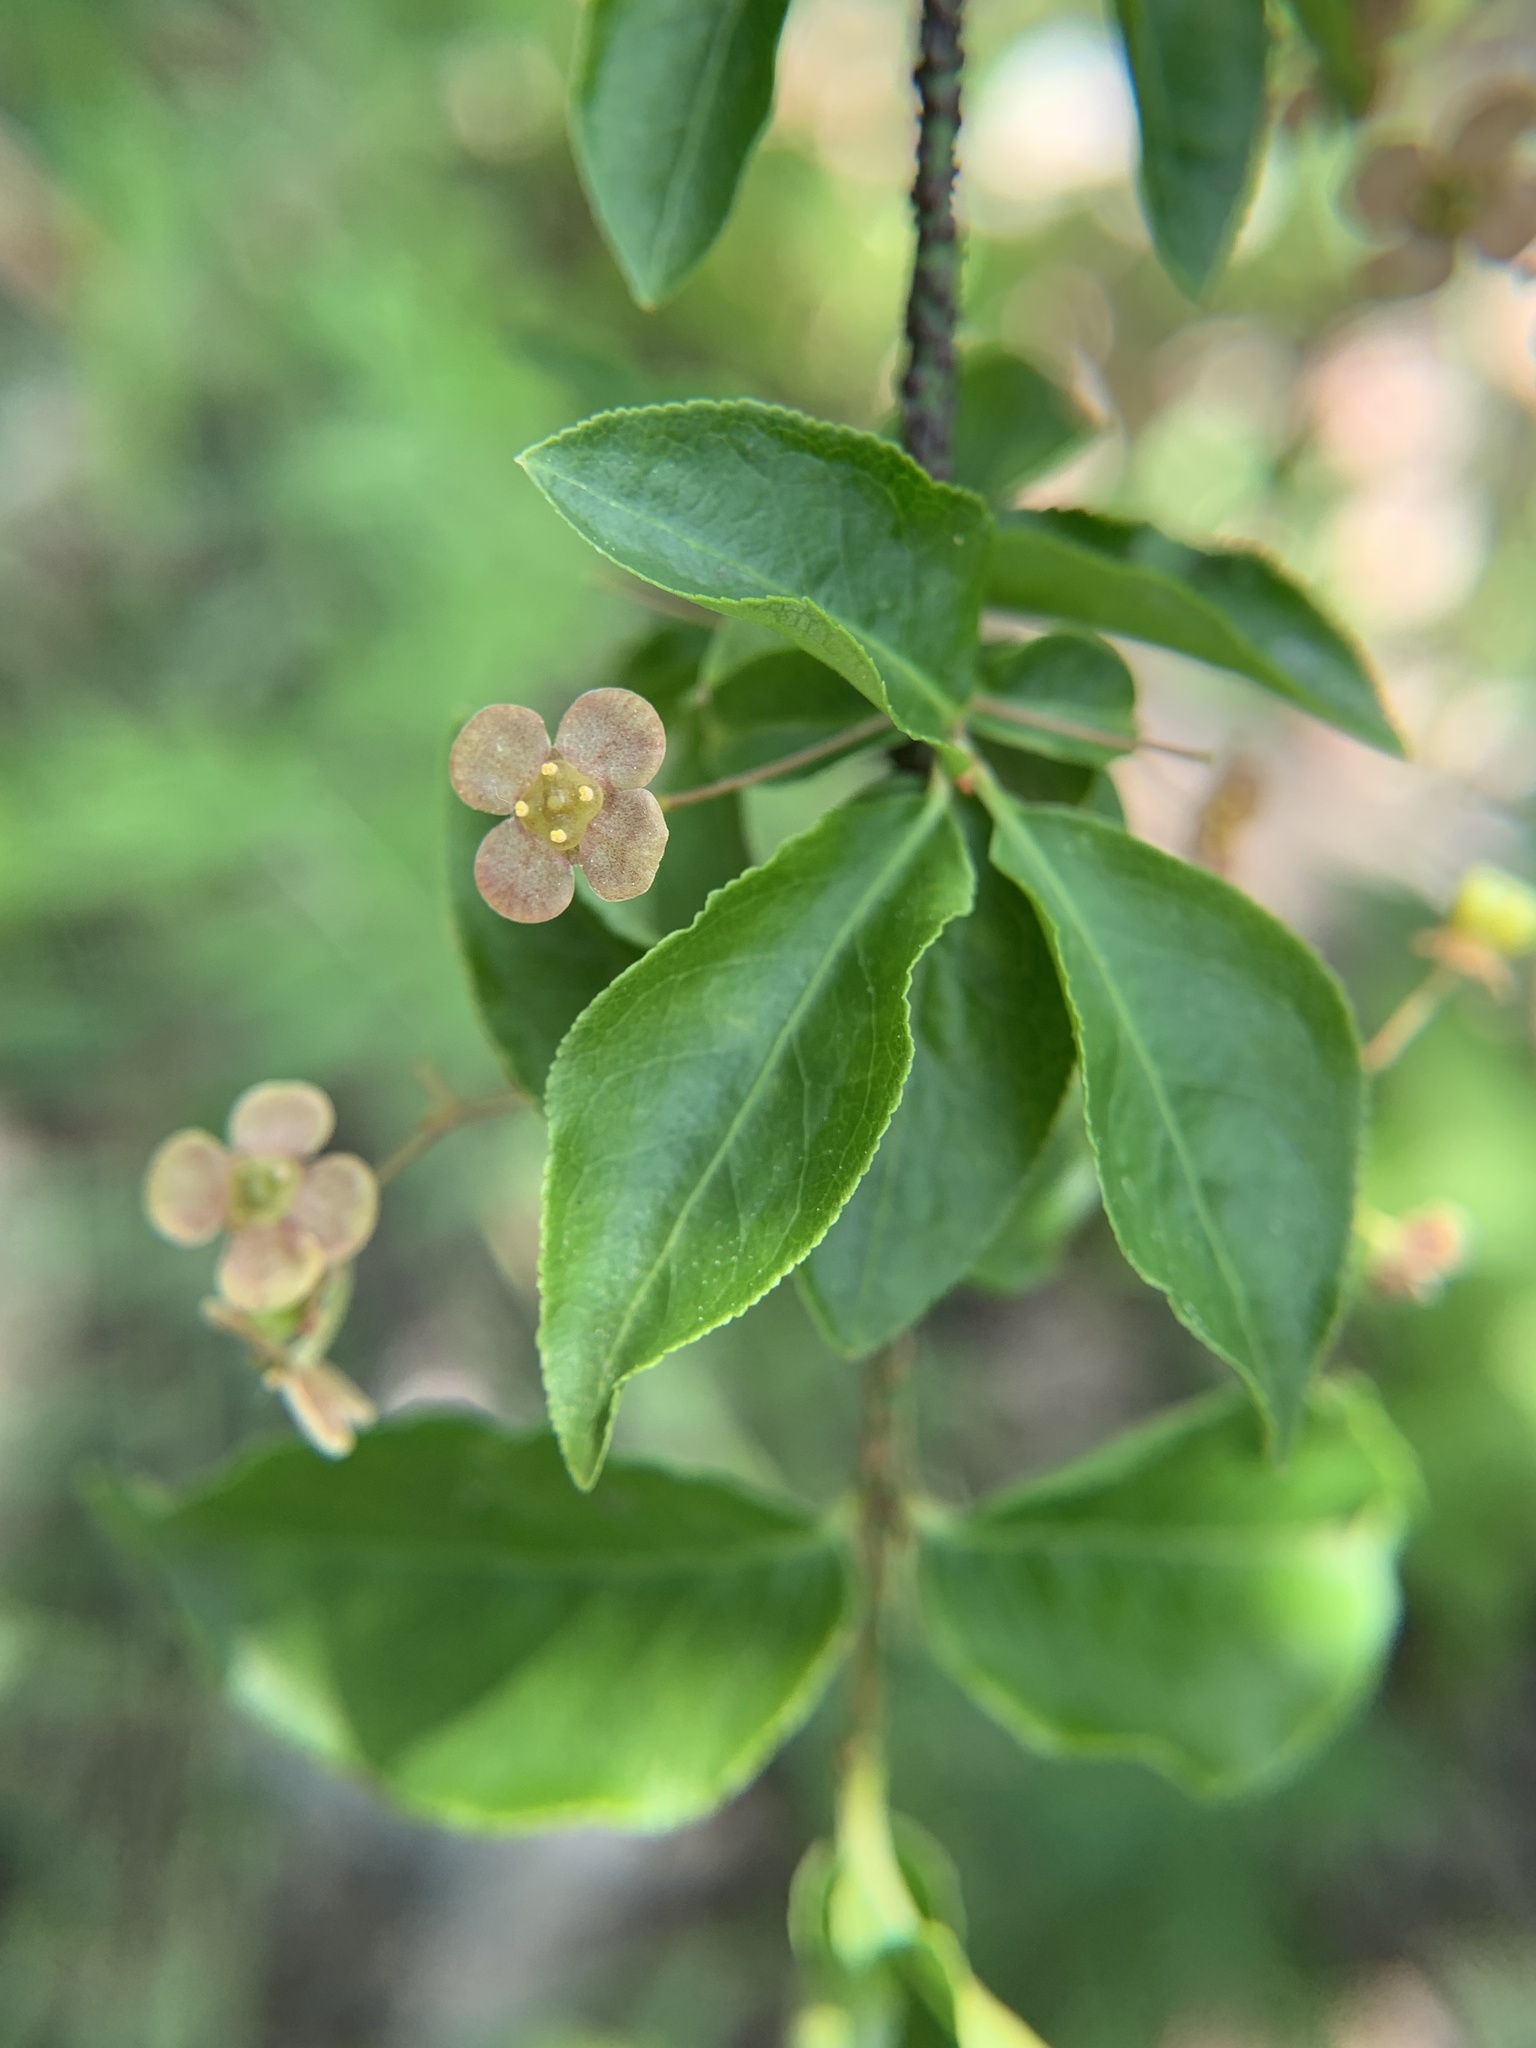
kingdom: Plantae
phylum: Tracheophyta
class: Magnoliopsida
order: Celastrales
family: Celastraceae
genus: Euonymus
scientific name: Euonymus verrucosus
